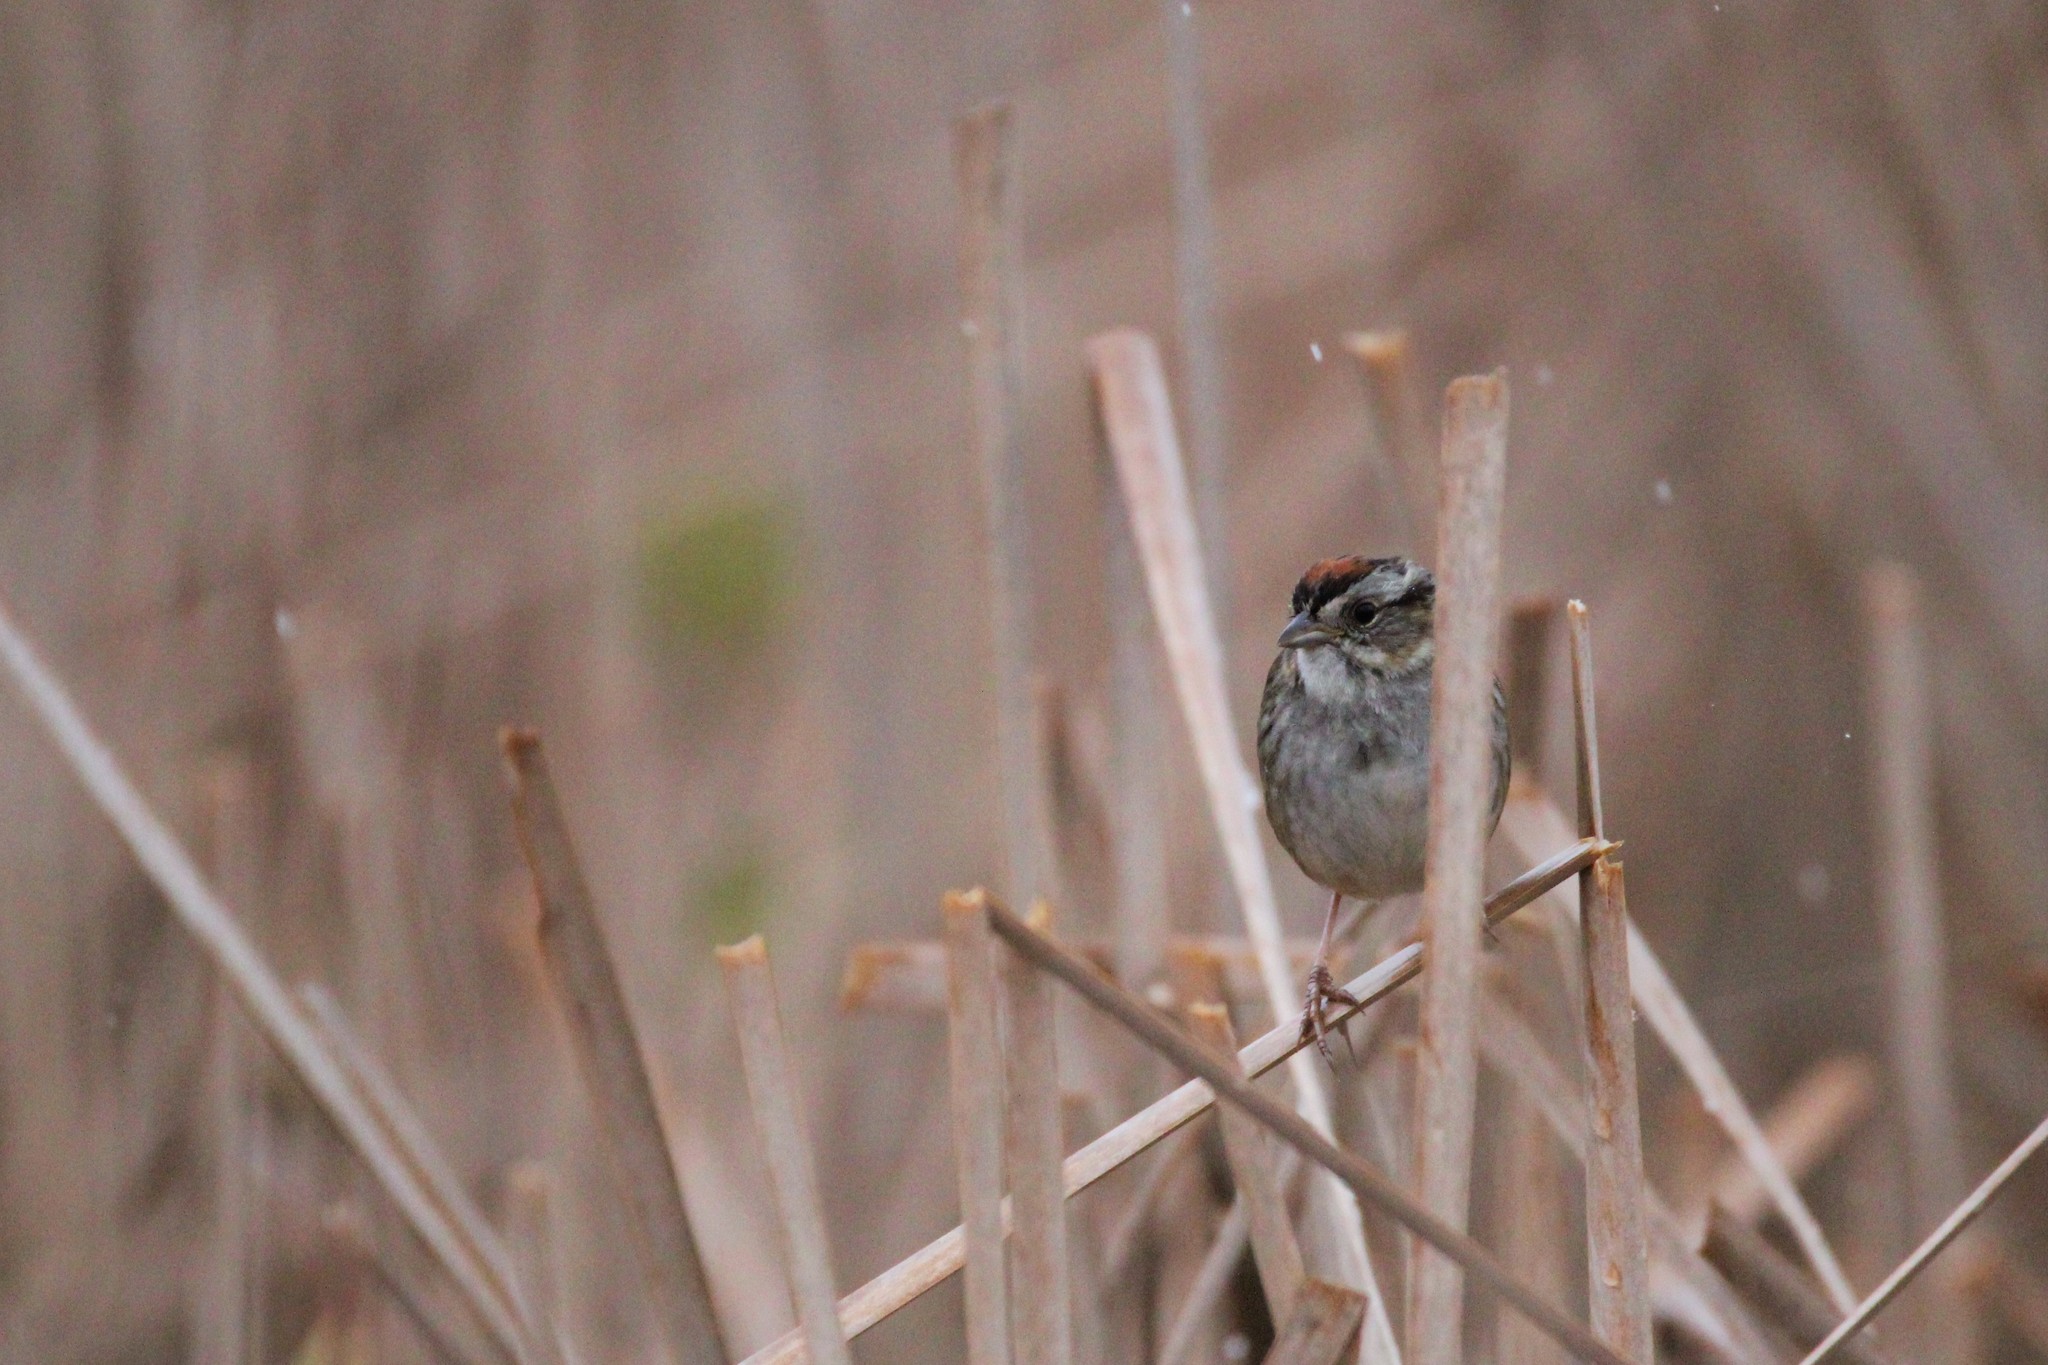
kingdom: Animalia
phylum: Chordata
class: Aves
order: Passeriformes
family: Passerellidae
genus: Melospiza
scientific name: Melospiza georgiana
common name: Swamp sparrow
